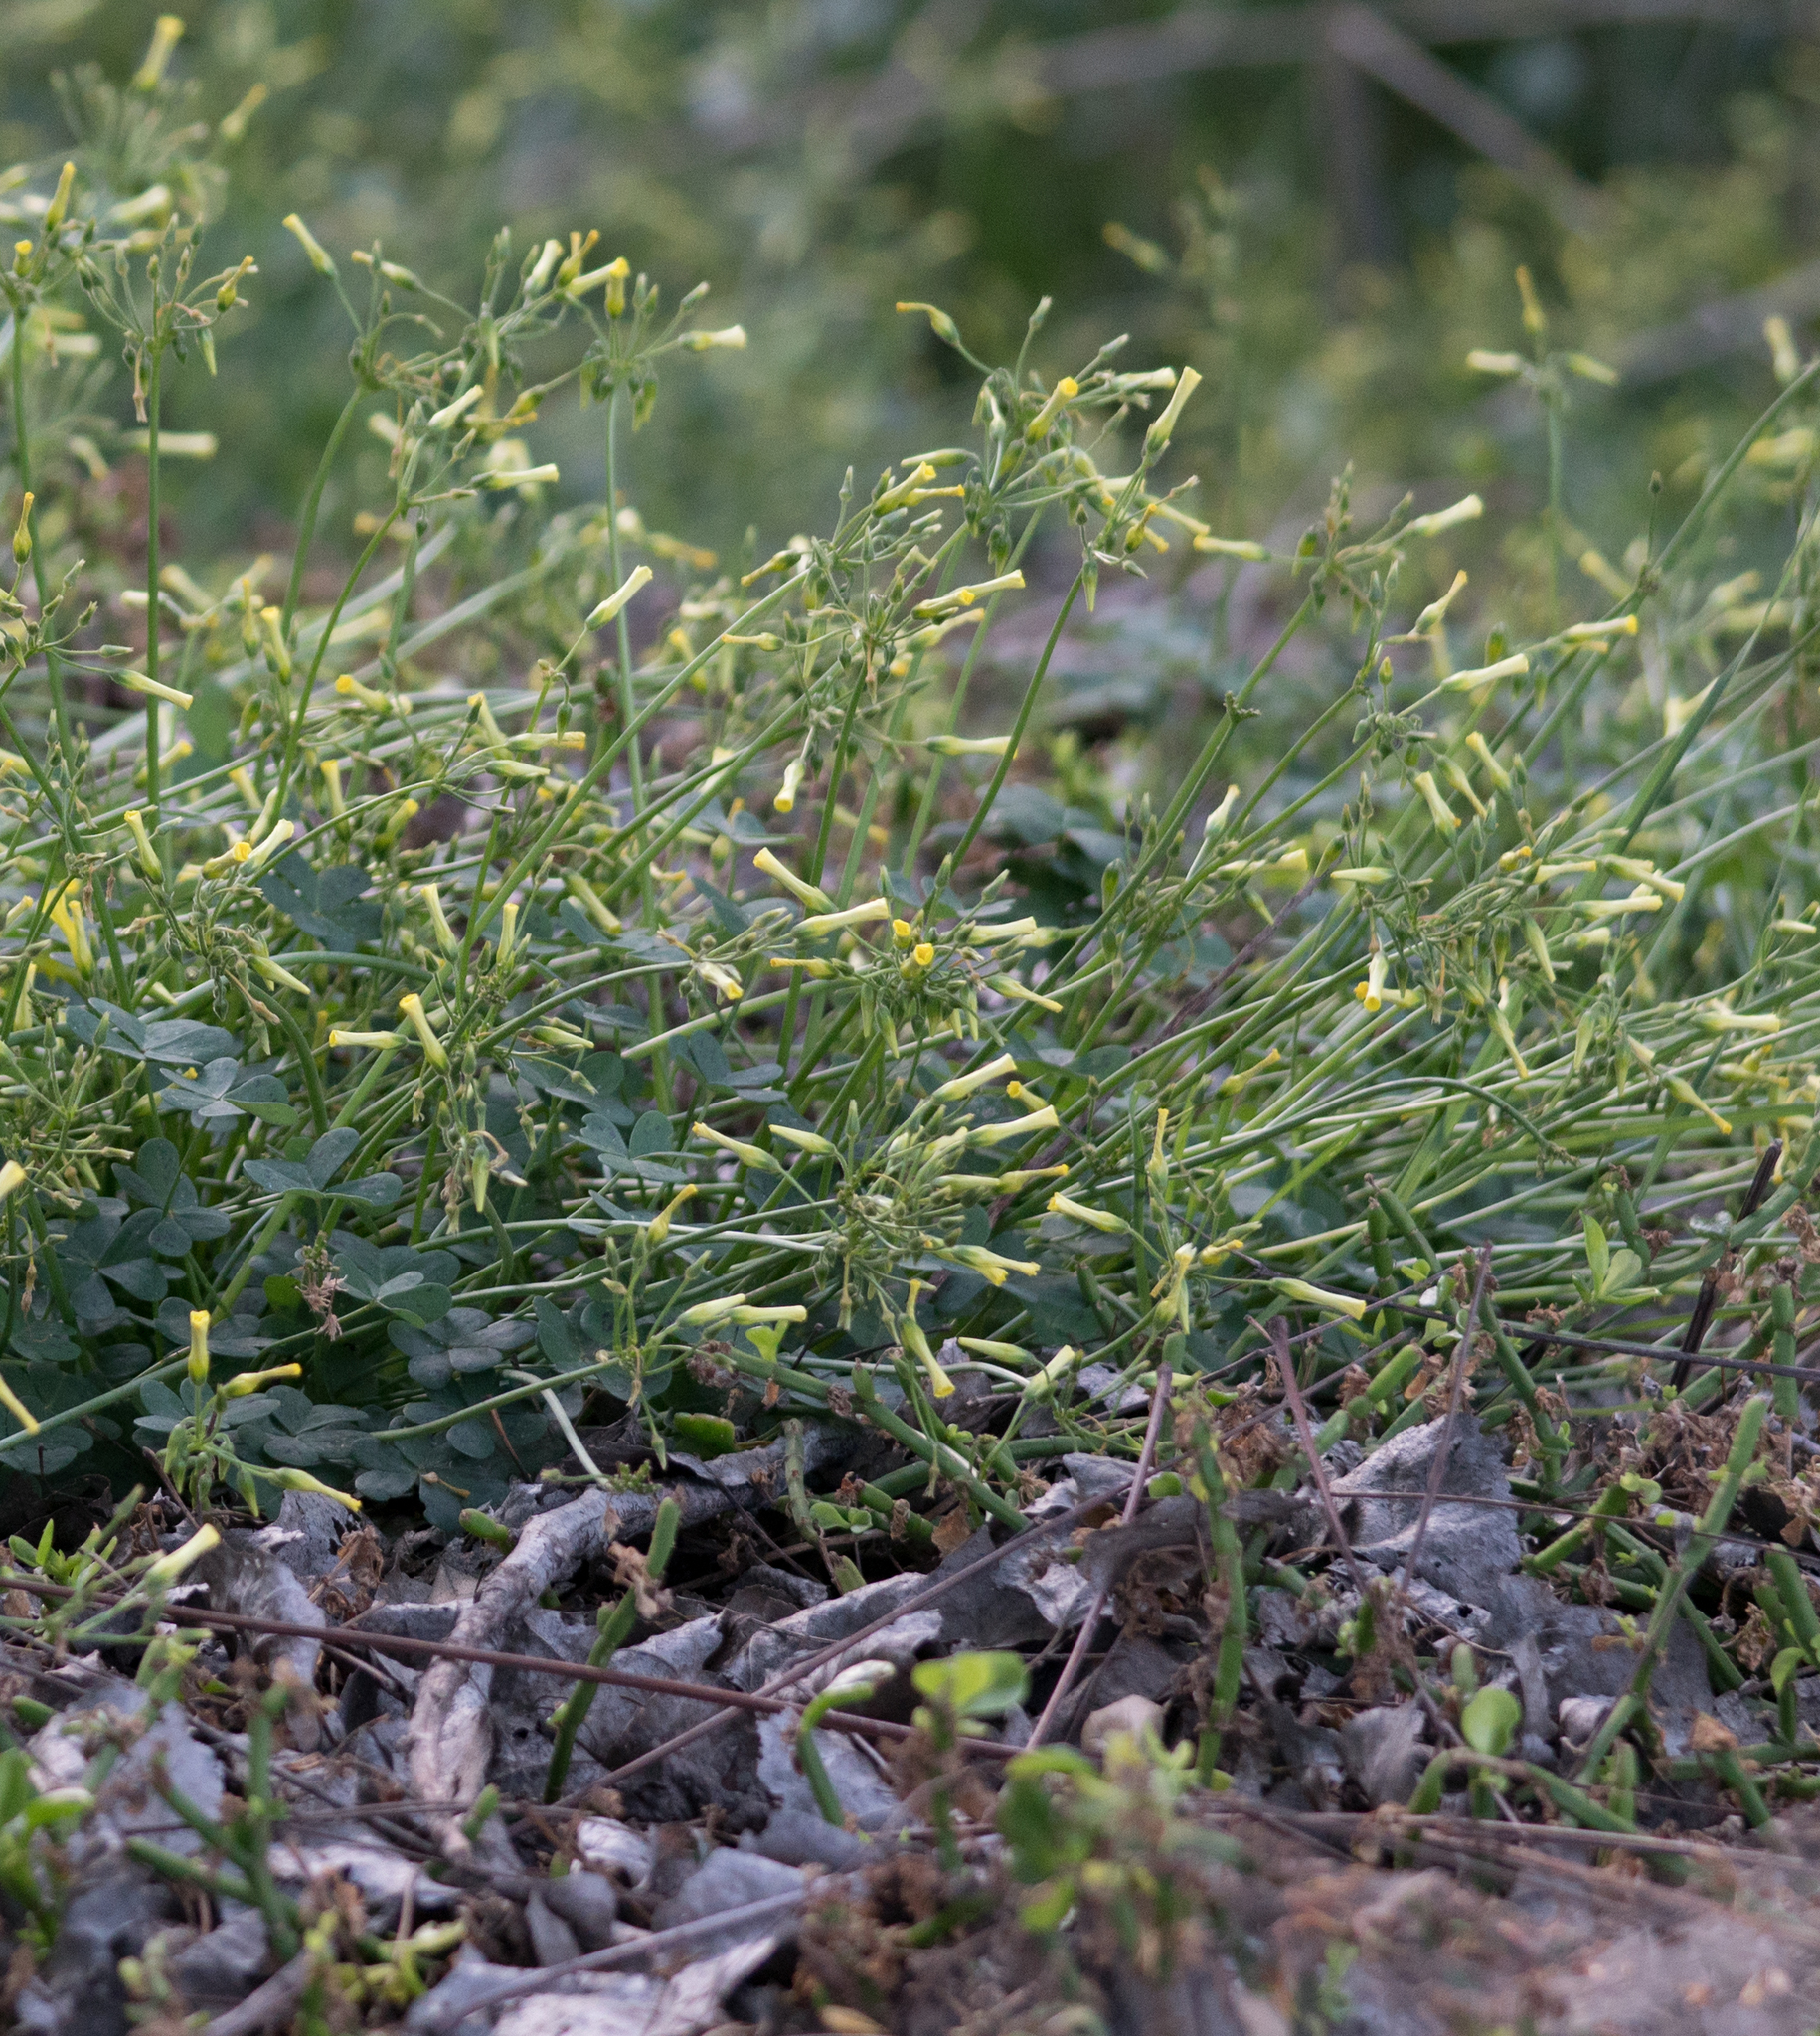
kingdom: Plantae
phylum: Tracheophyta
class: Magnoliopsida
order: Oxalidales
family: Oxalidaceae
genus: Oxalis
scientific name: Oxalis pes-caprae
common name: Bermuda-buttercup
